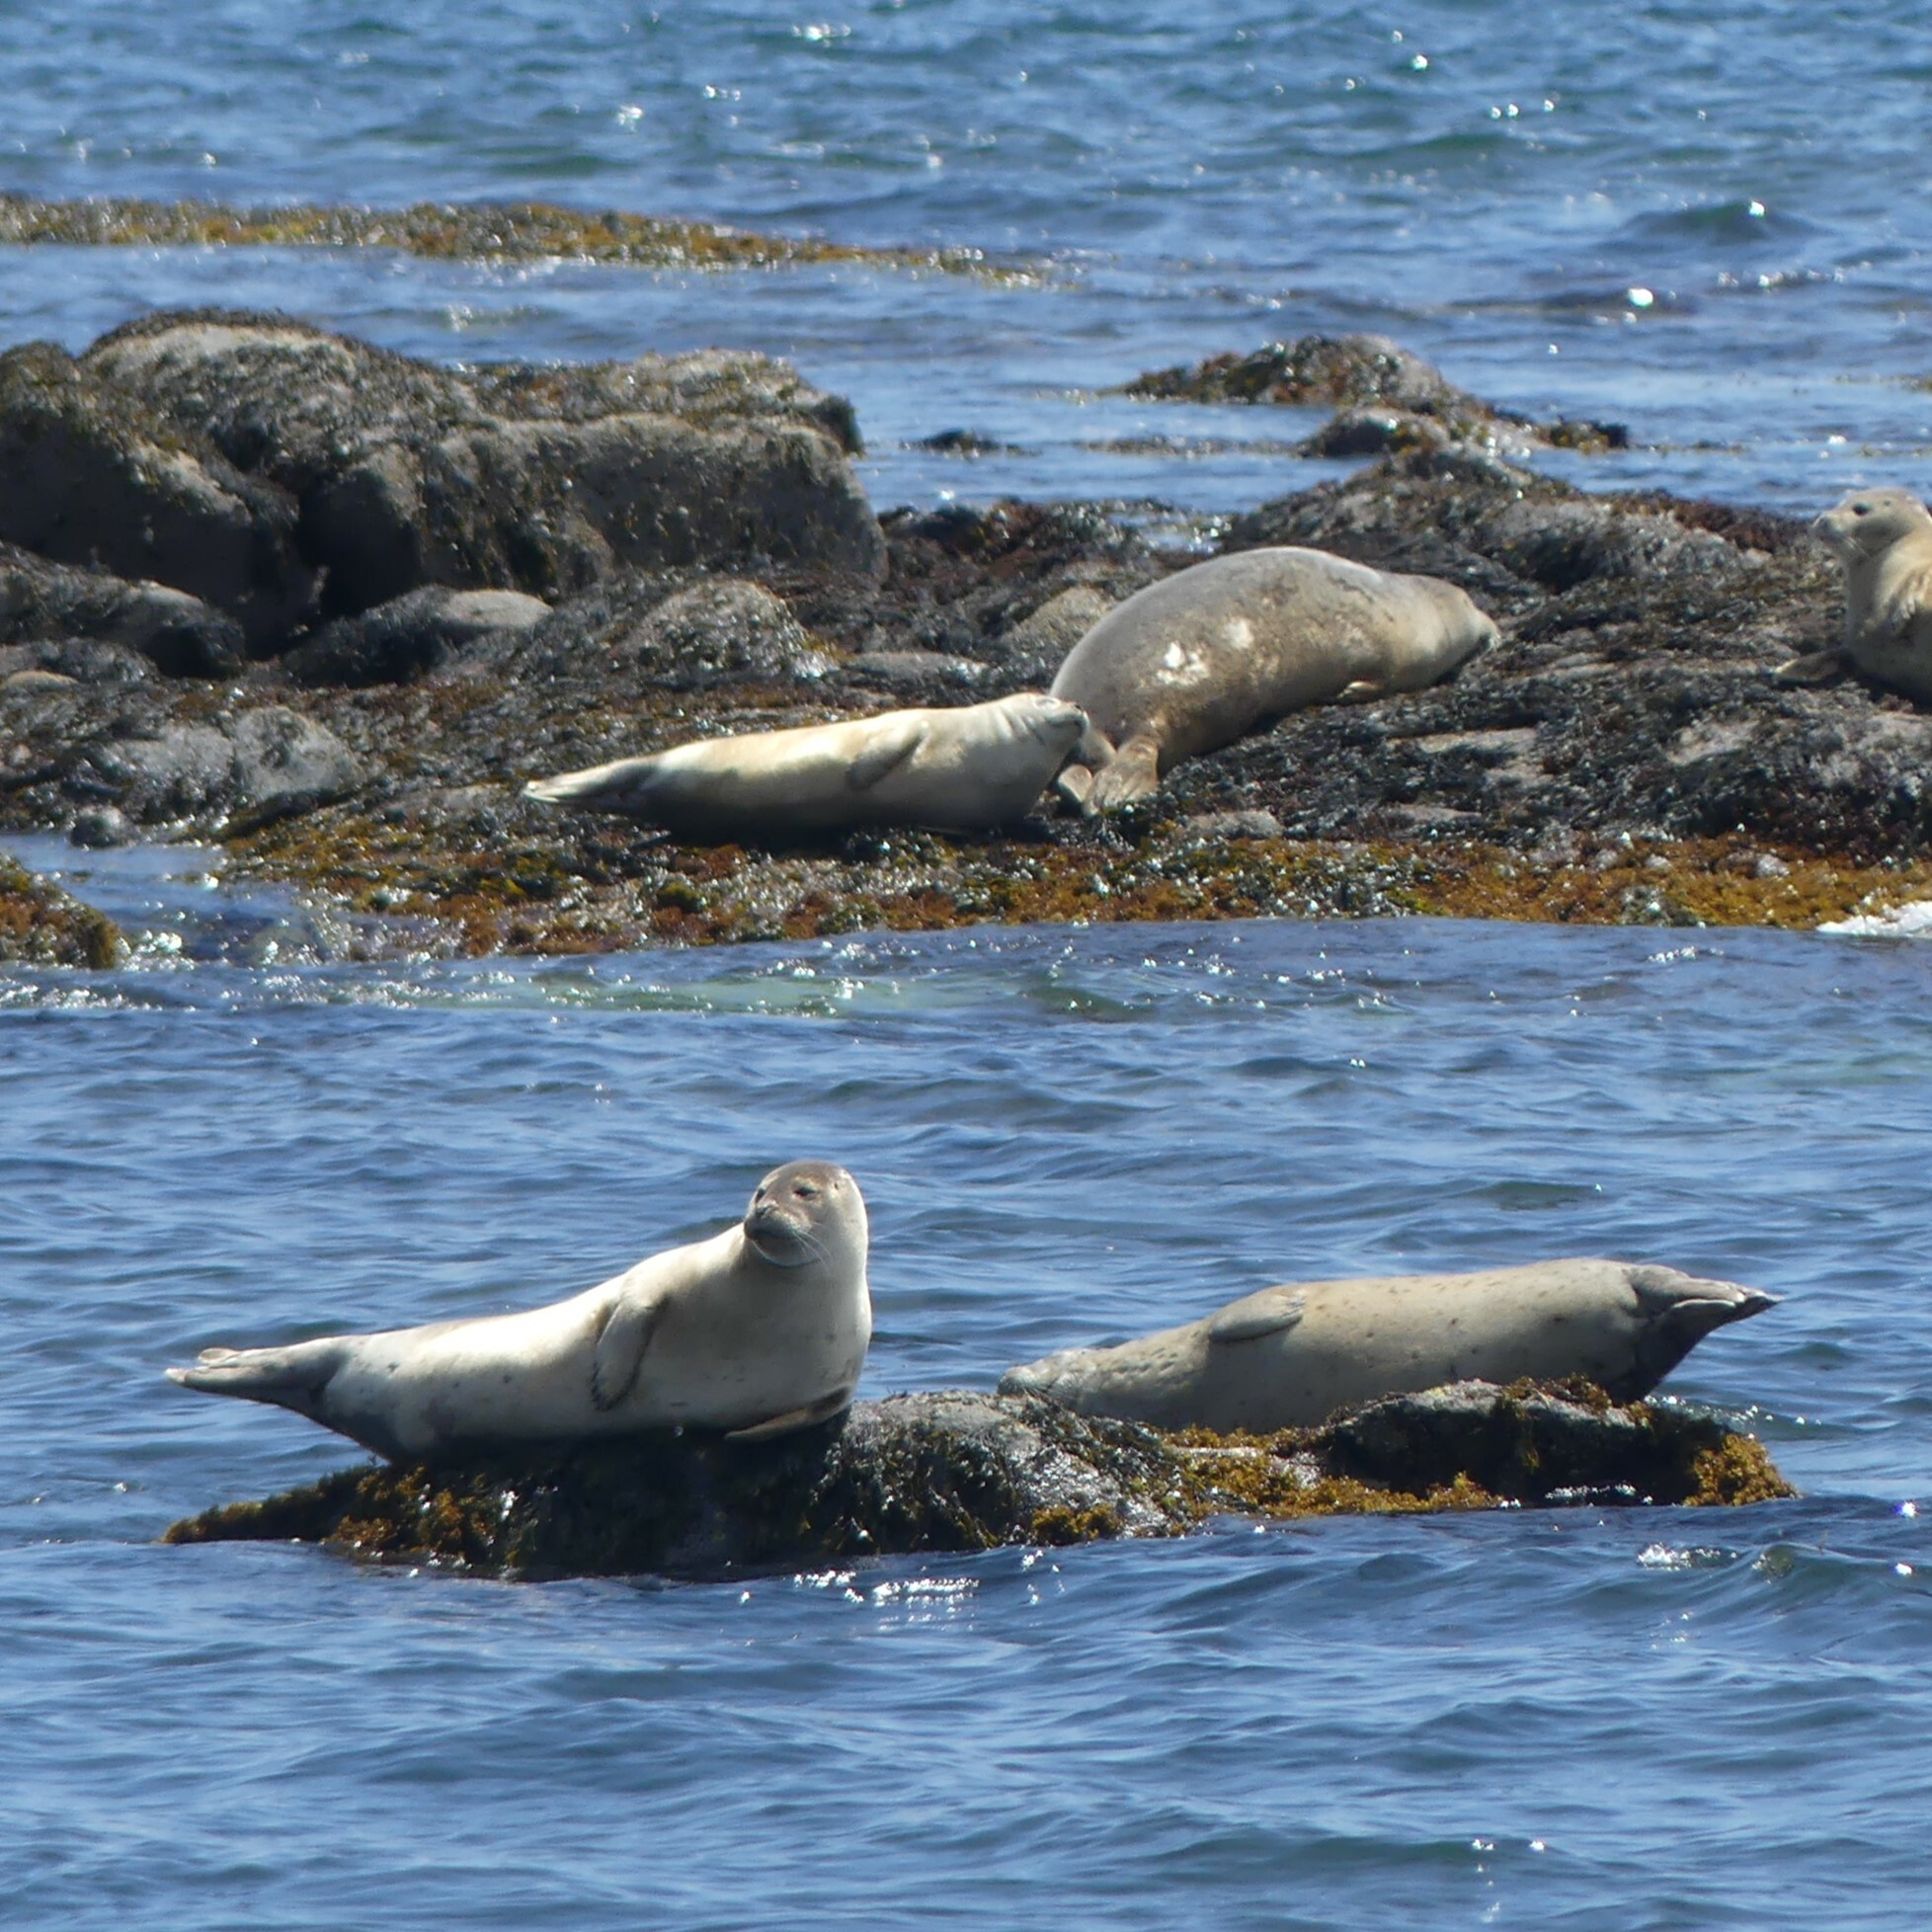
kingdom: Animalia
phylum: Chordata
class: Mammalia
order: Carnivora
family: Phocidae
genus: Phoca
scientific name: Phoca vitulina
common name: Harbor seal
